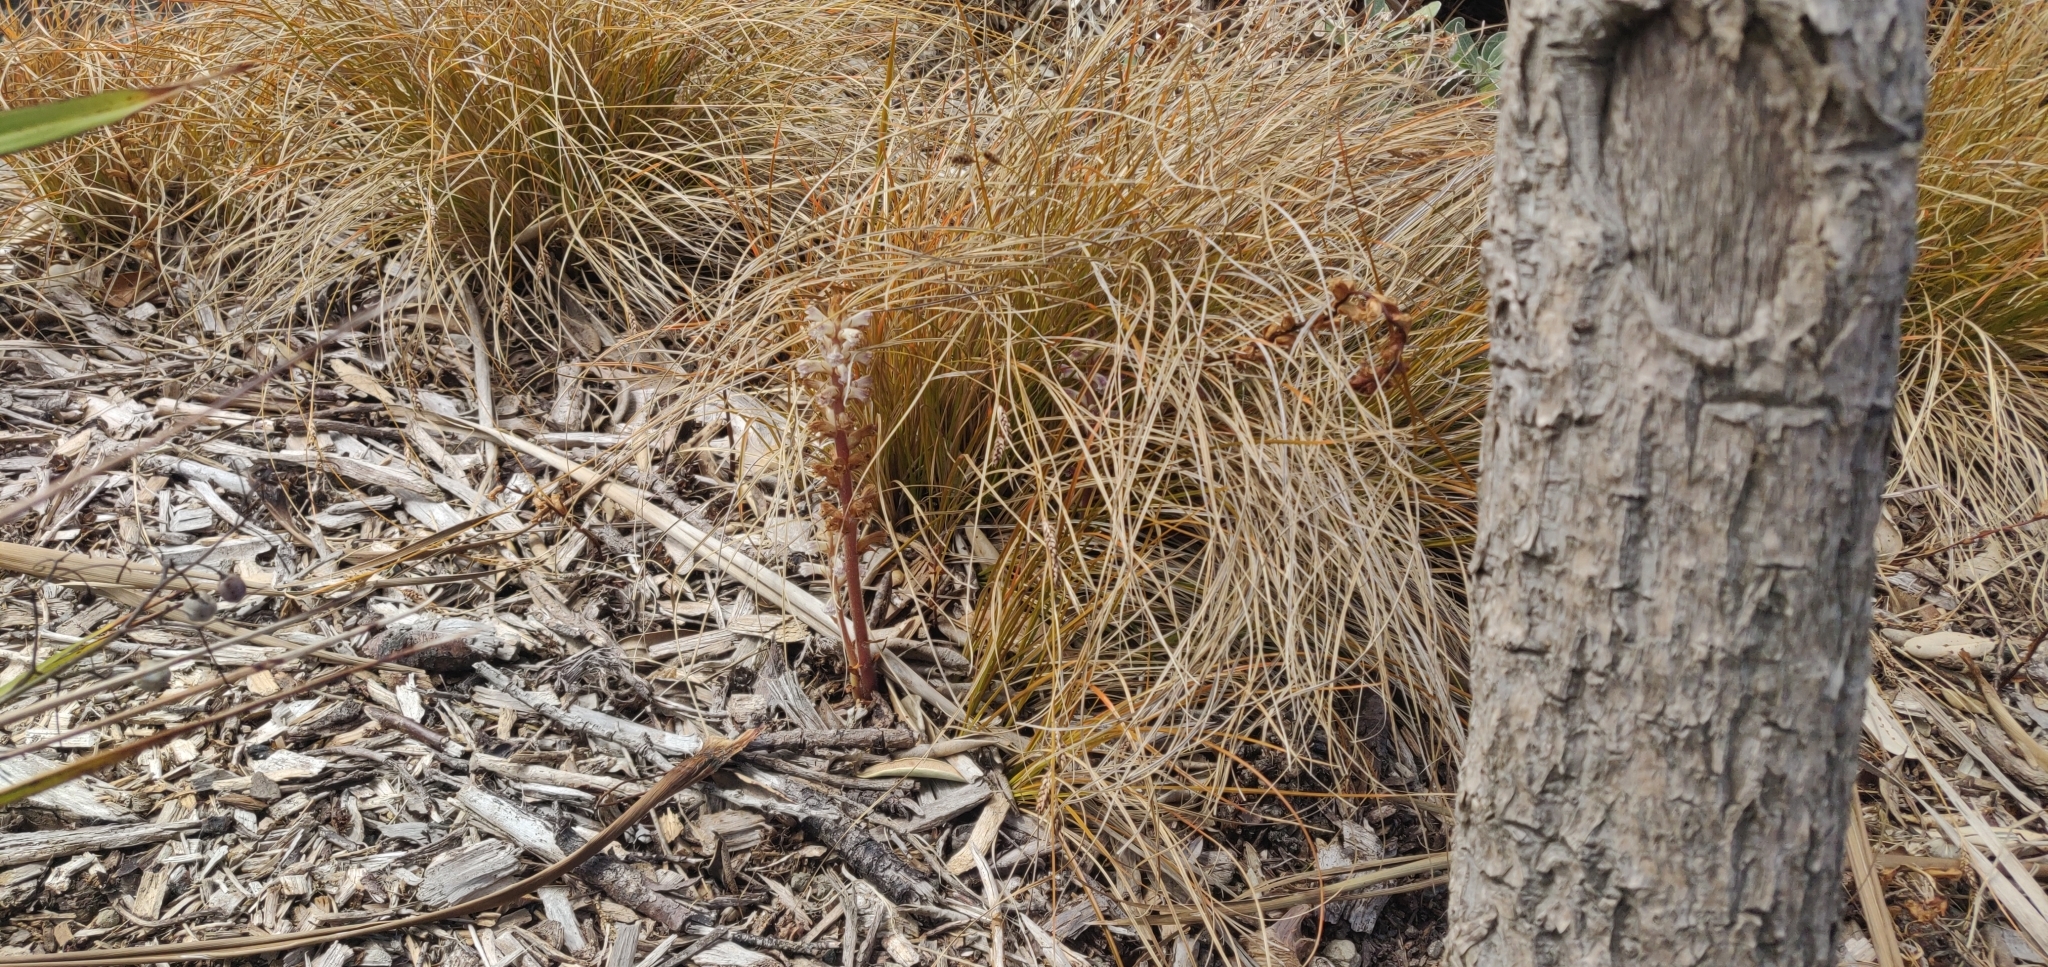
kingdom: Plantae
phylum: Tracheophyta
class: Magnoliopsida
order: Lamiales
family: Orobanchaceae
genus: Orobanche
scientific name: Orobanche minor
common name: Common broomrape
